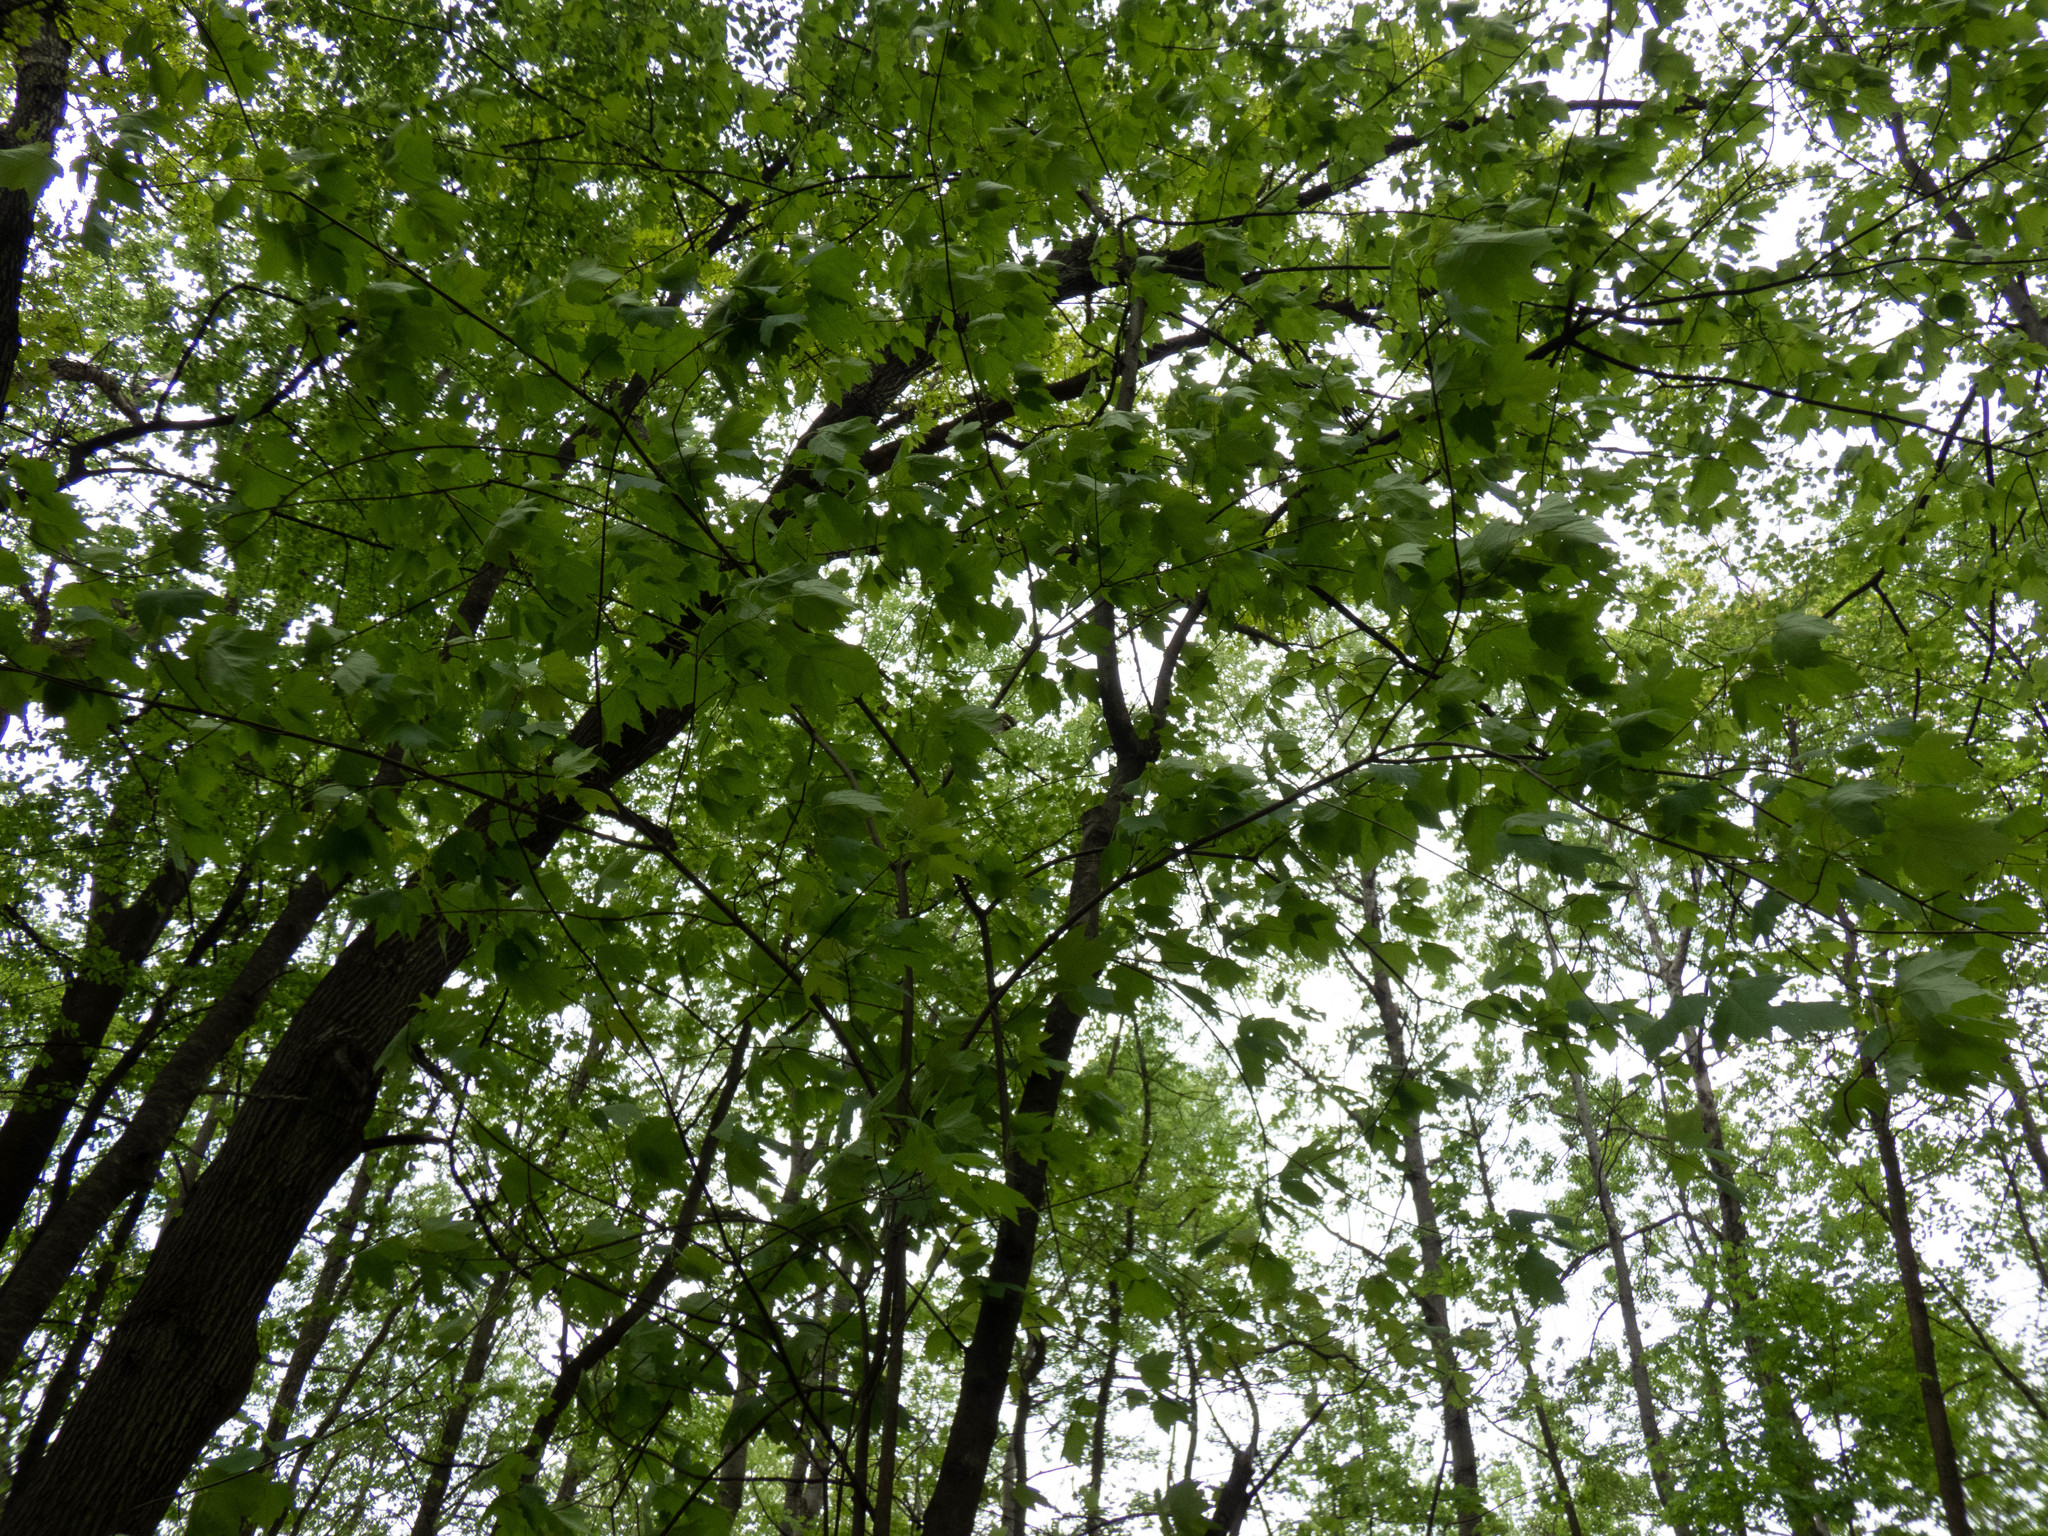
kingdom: Plantae
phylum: Tracheophyta
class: Magnoliopsida
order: Sapindales
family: Sapindaceae
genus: Acer
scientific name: Acer rubrum
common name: Red maple
